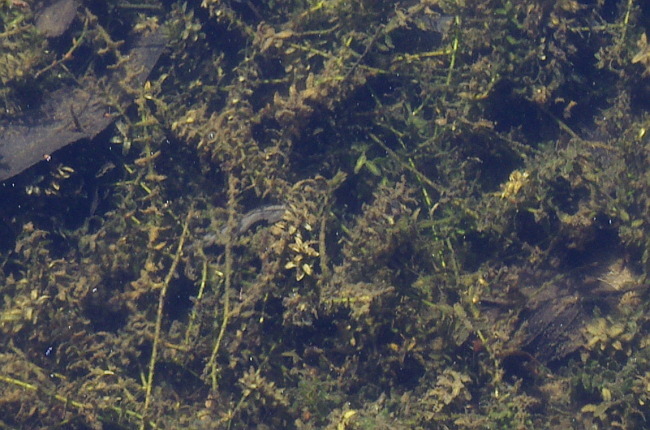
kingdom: Plantae
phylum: Tracheophyta
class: Liliopsida
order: Alismatales
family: Hydrocharitaceae
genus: Elodea
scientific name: Elodea canadensis
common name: Canadian waterweed
